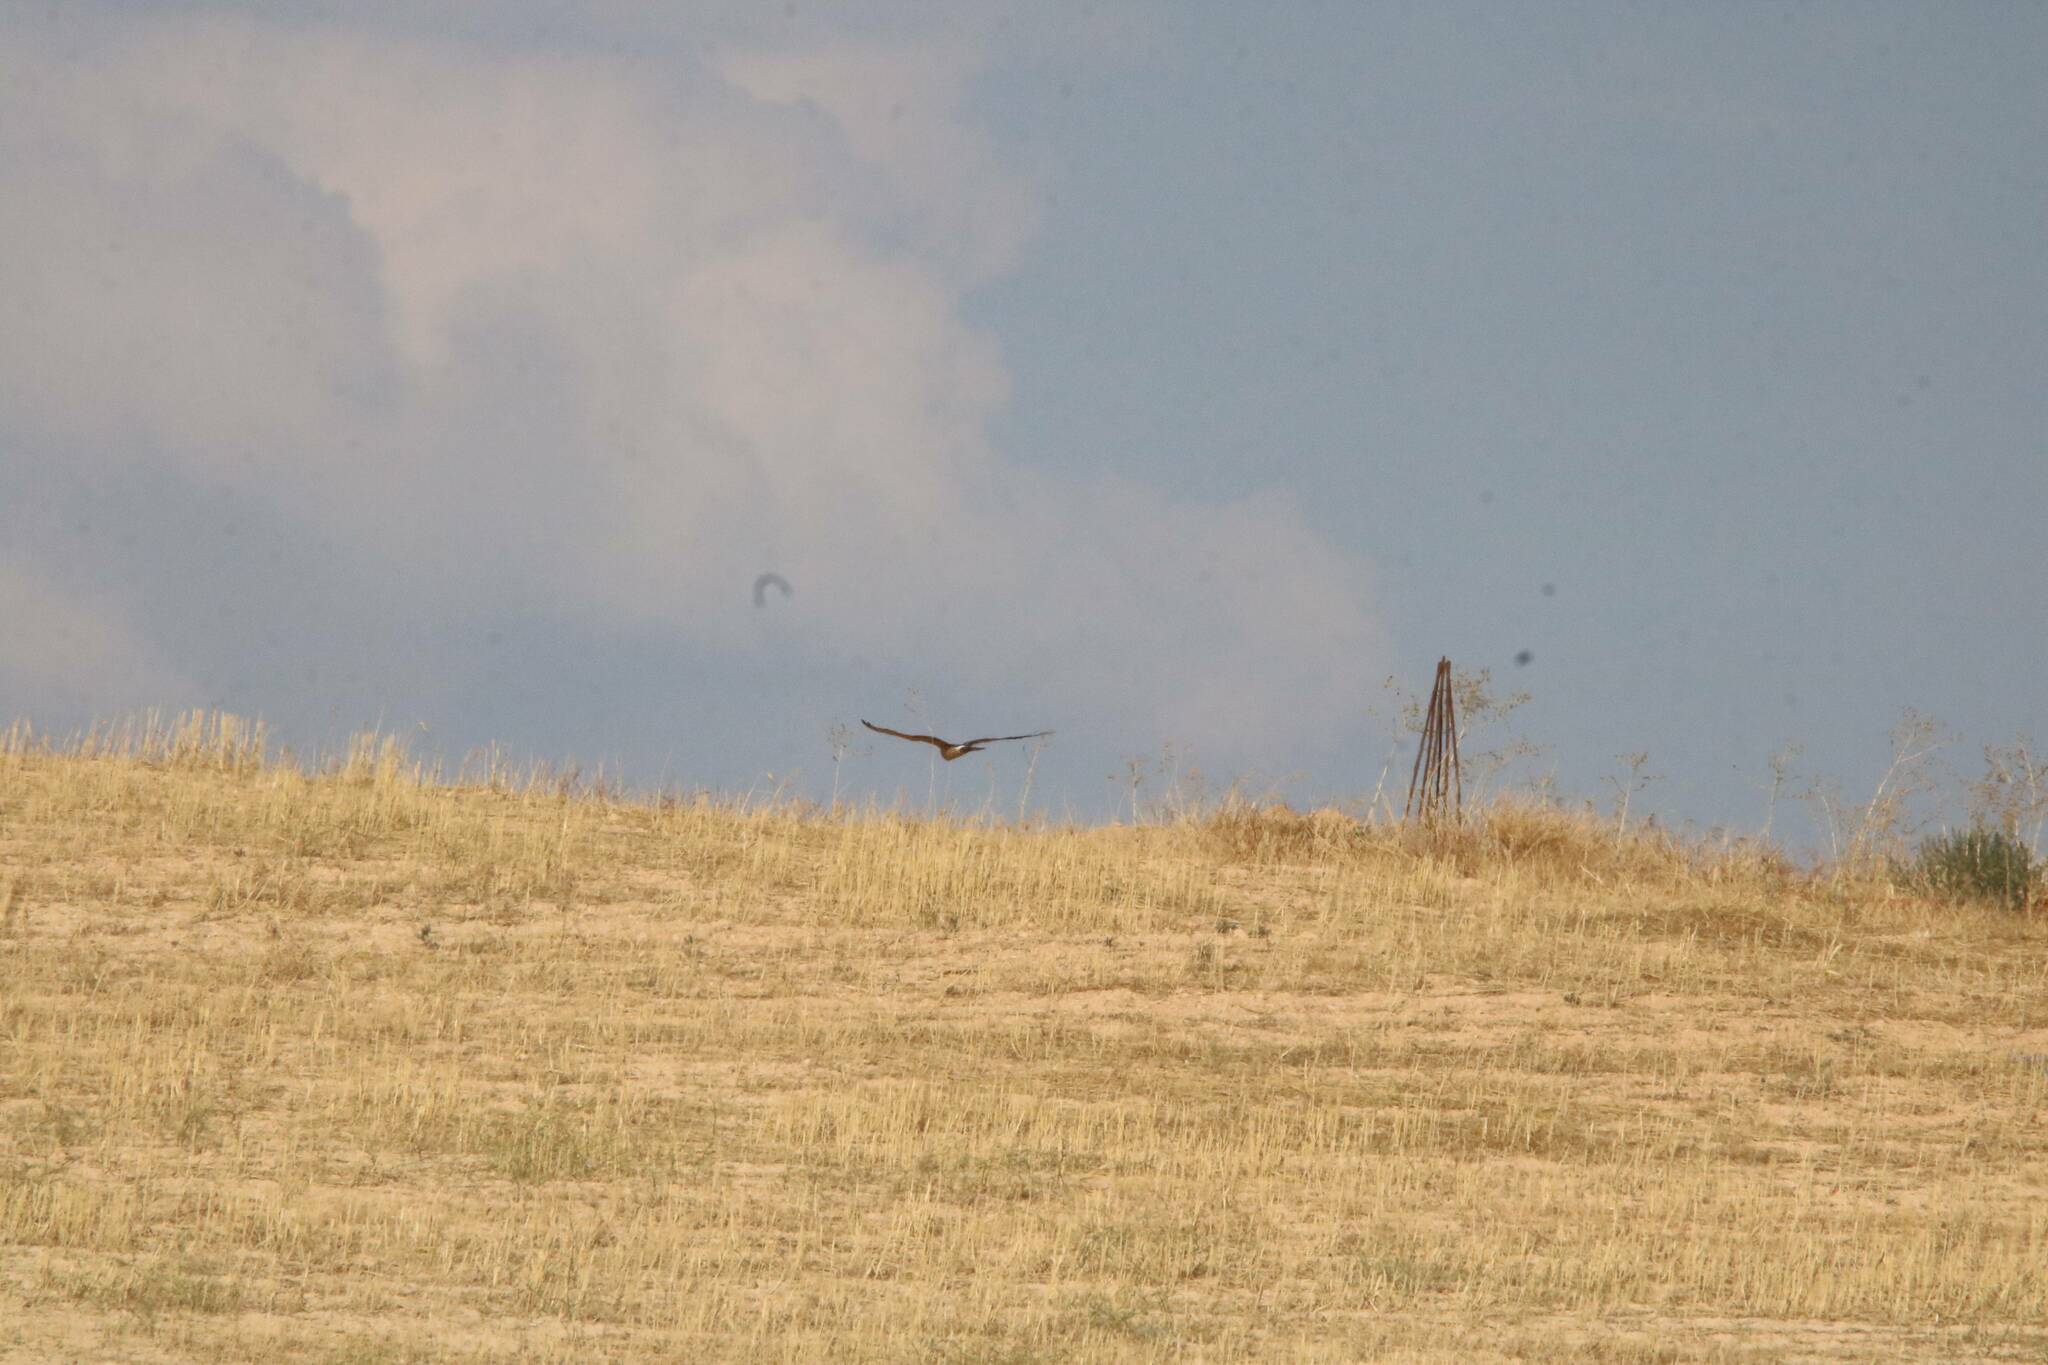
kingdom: Animalia
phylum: Chordata
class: Aves
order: Accipitriformes
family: Accipitridae
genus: Circus
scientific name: Circus aeruginosus
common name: Western marsh harrier
